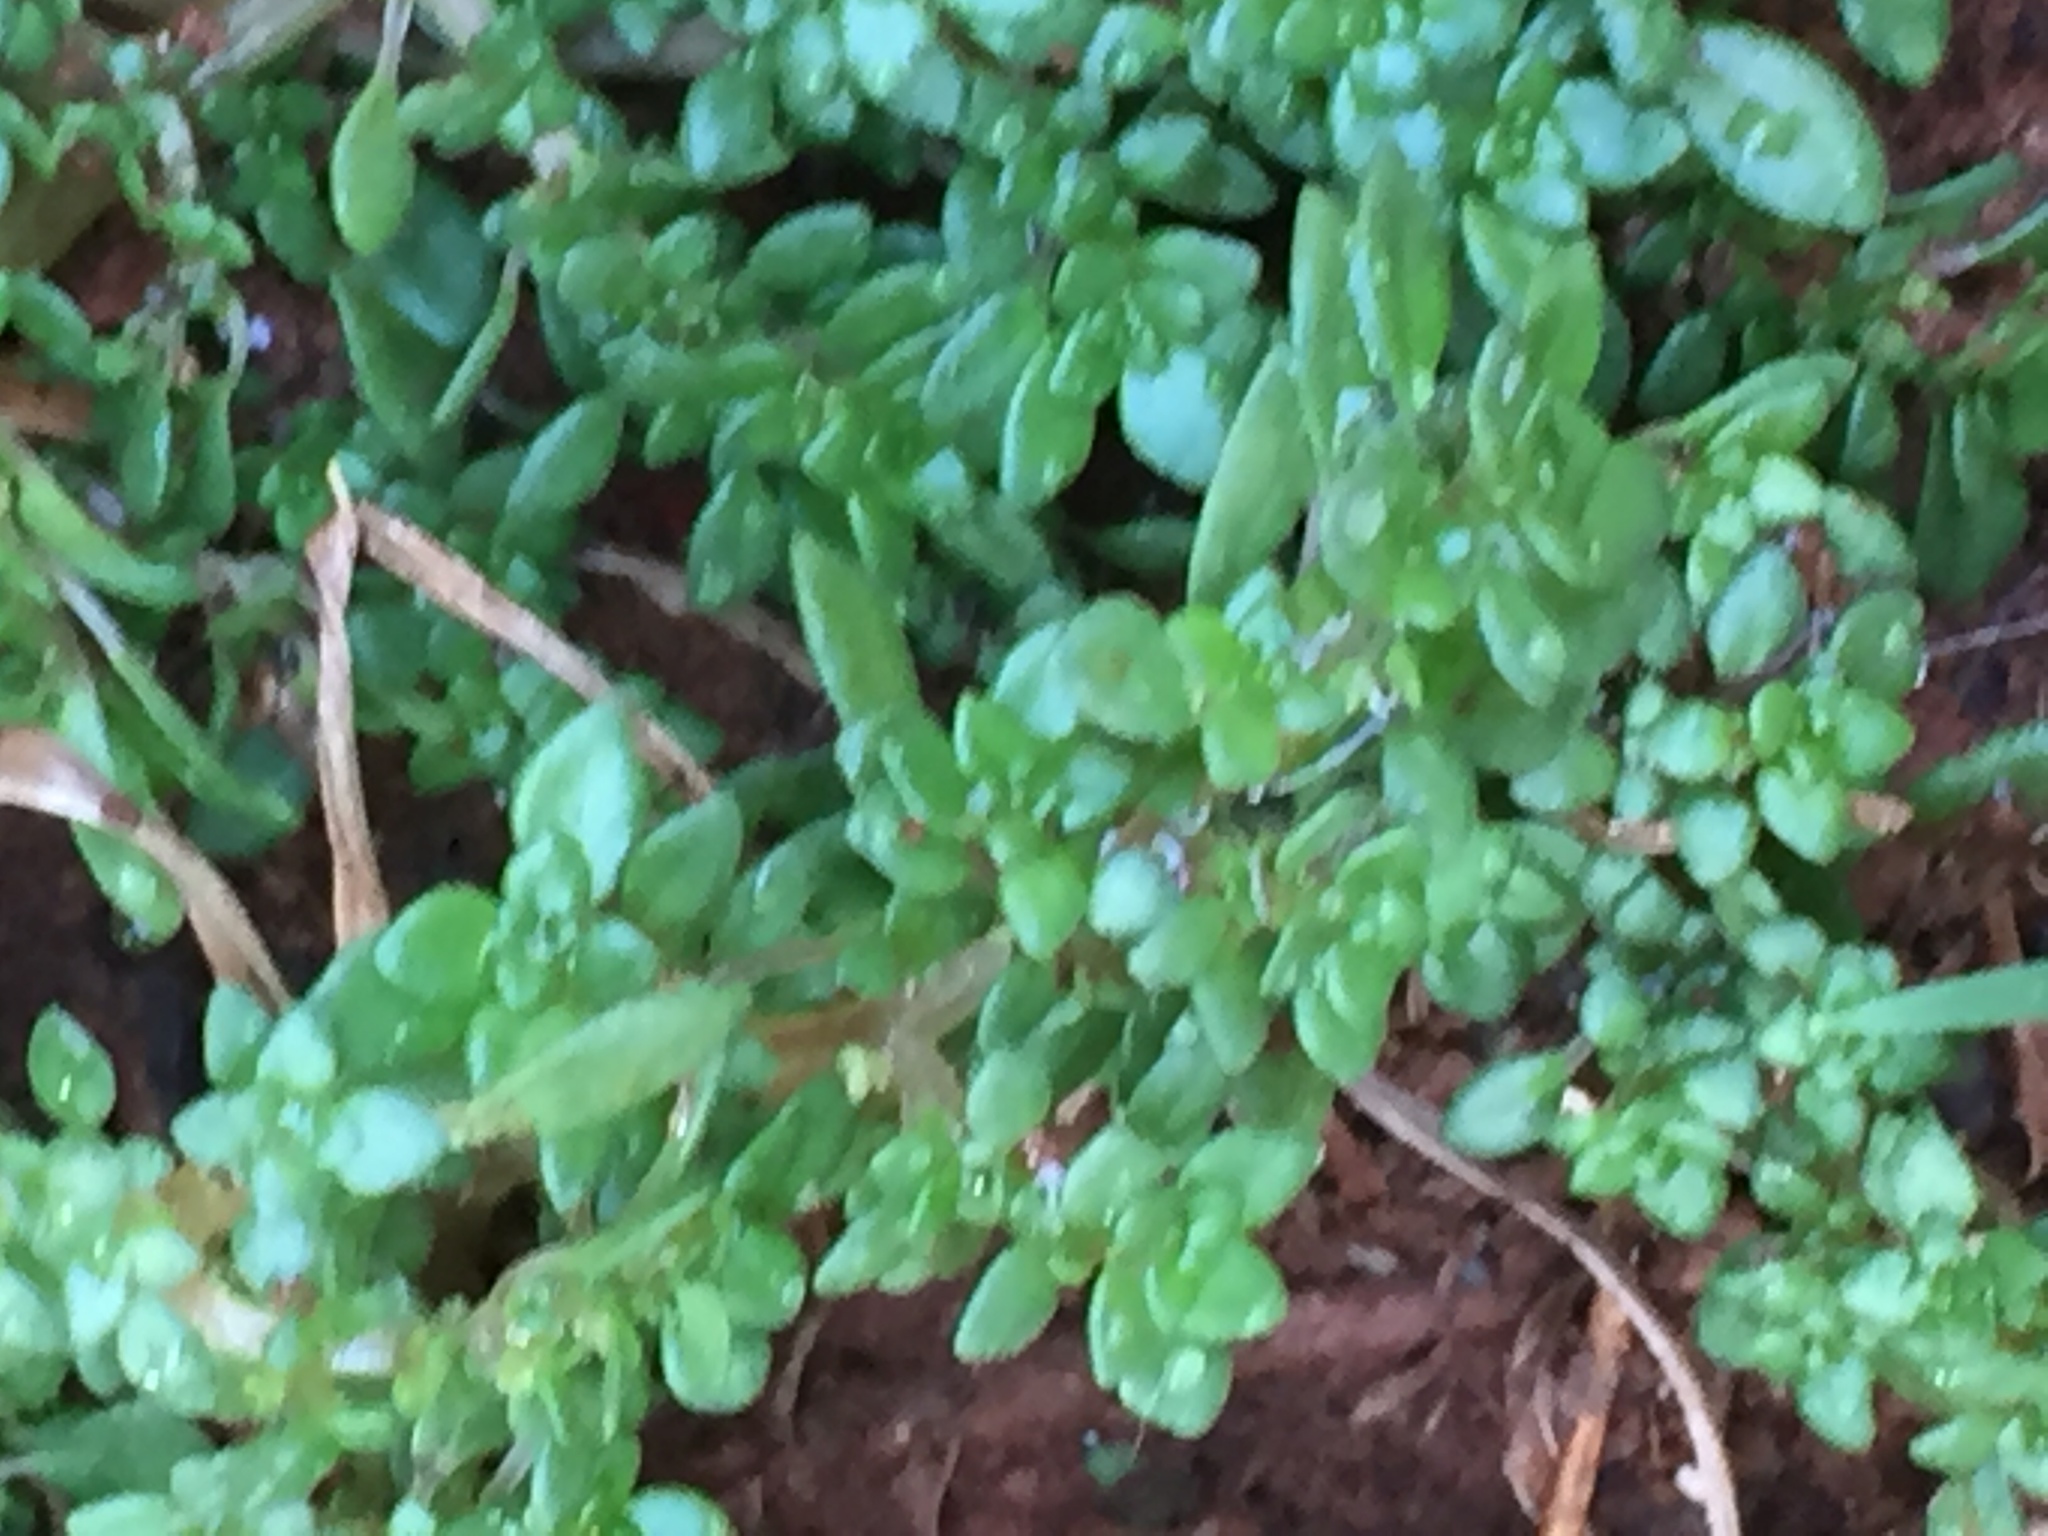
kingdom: Plantae
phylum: Tracheophyta
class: Magnoliopsida
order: Rosales
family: Urticaceae
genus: Pilea
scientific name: Pilea microphylla
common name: Artillery-plant
